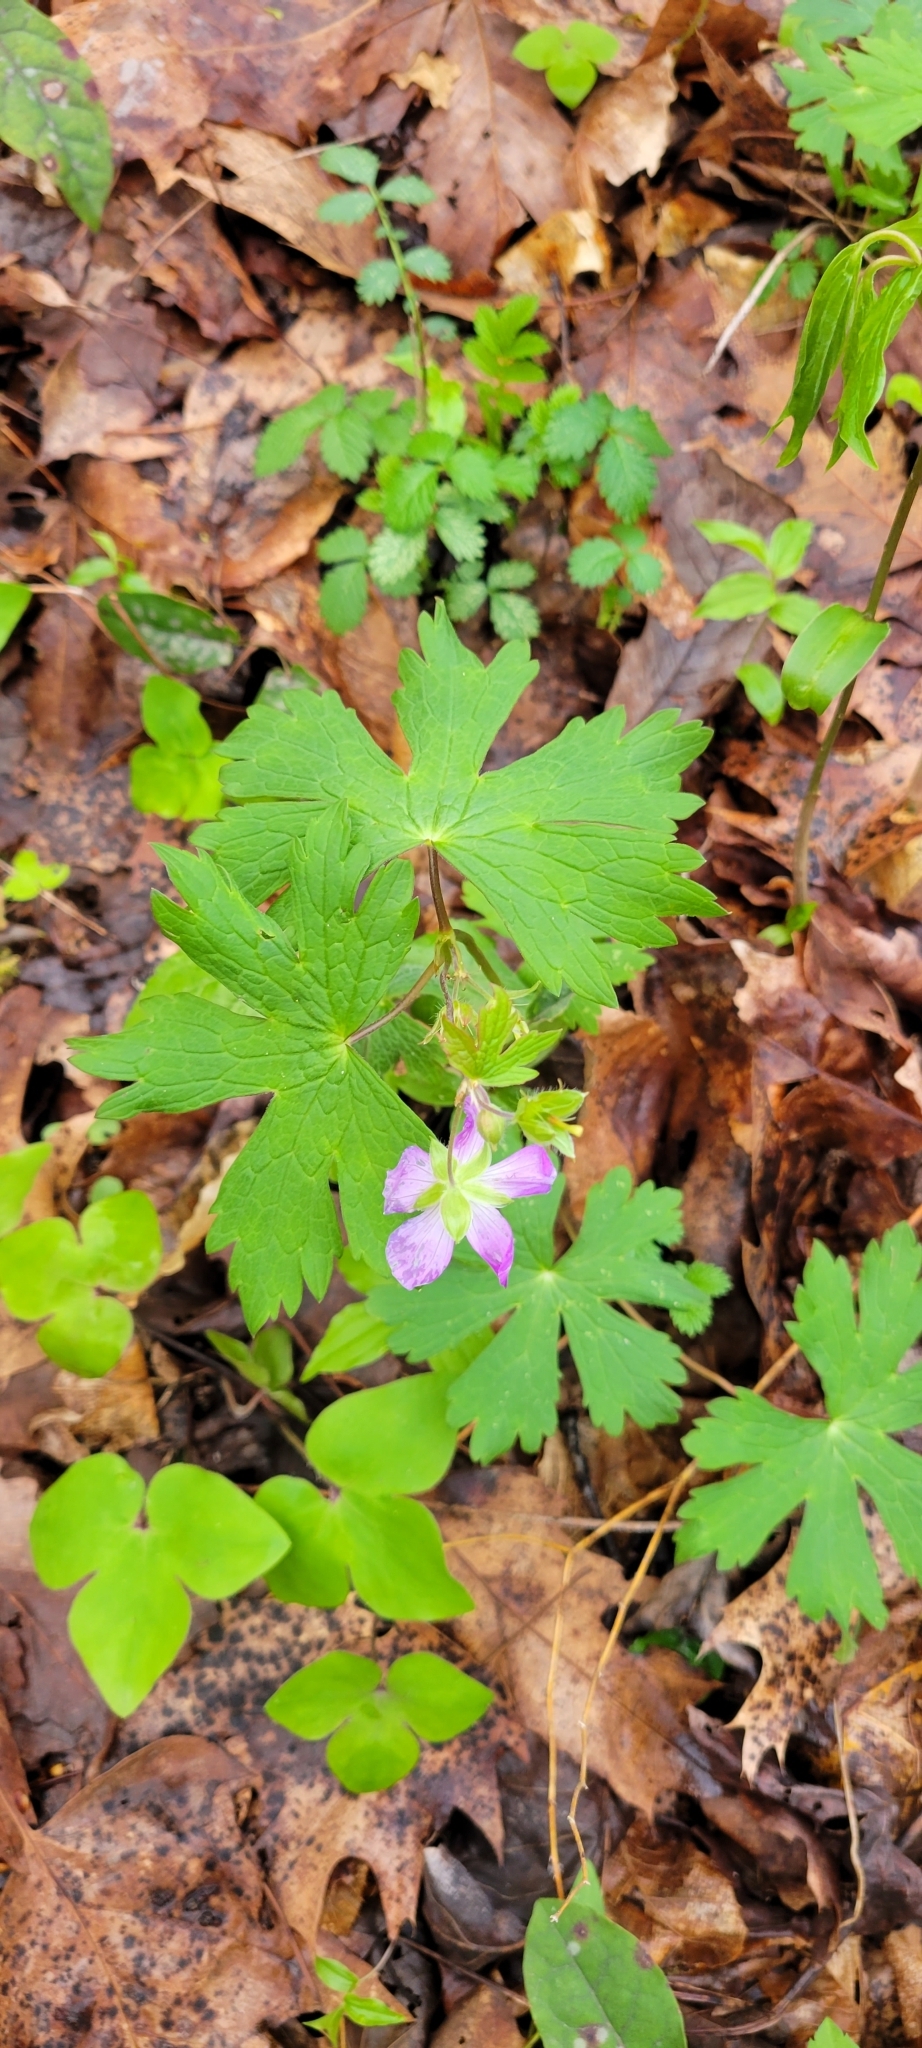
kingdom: Plantae
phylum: Tracheophyta
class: Magnoliopsida
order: Geraniales
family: Geraniaceae
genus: Geranium
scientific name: Geranium maculatum
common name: Spotted geranium
